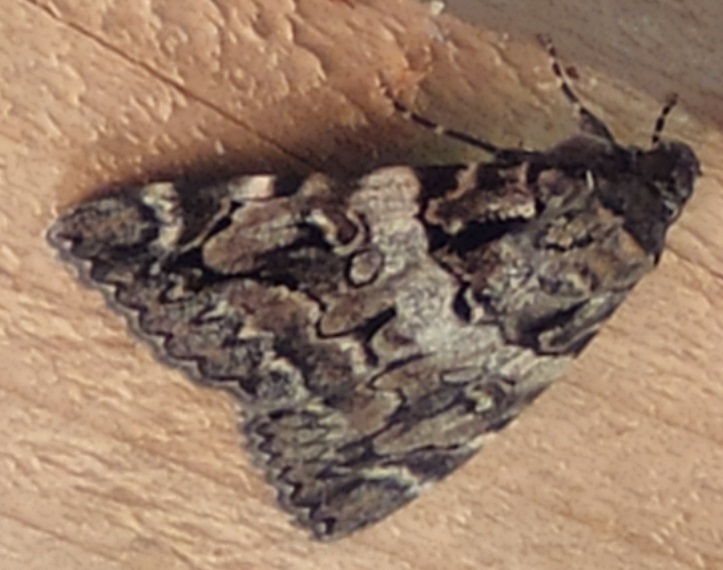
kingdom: Animalia
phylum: Arthropoda
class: Insecta
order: Lepidoptera
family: Erebidae
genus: Catocala
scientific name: Catocala coniuncta
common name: Minsmere crimson underwing
